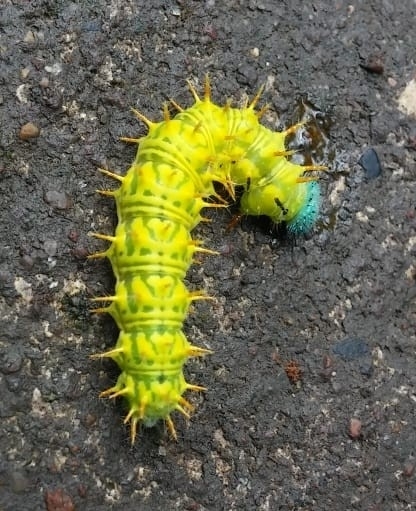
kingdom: Animalia
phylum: Arthropoda
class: Insecta
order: Lepidoptera
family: Nymphalidae
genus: Hypanartia
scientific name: Hypanartia lethe
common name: Orange mapwing
